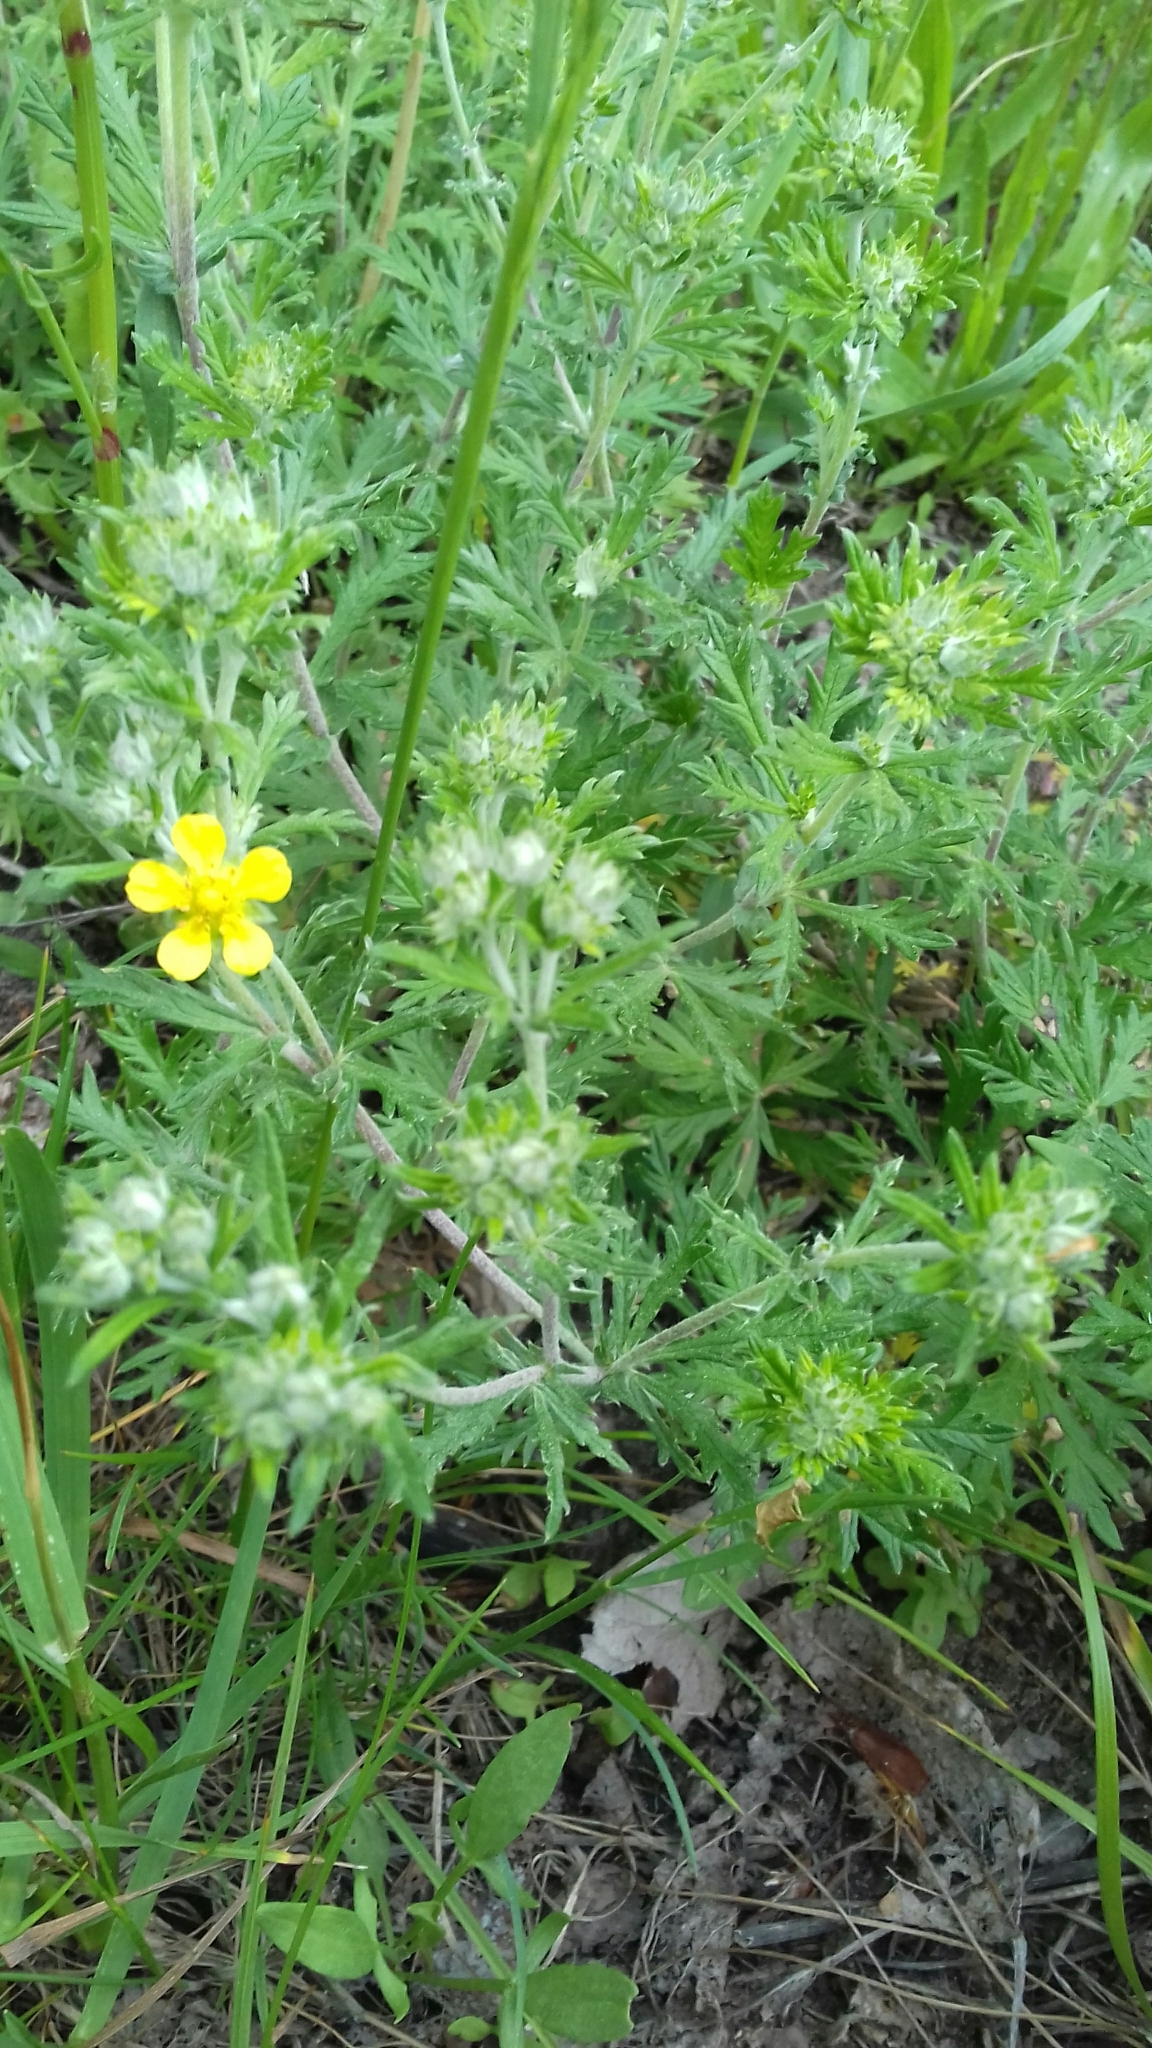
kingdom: Plantae
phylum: Tracheophyta
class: Magnoliopsida
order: Rosales
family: Rosaceae
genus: Potentilla
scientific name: Potentilla argentea
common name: Hoary cinquefoil
